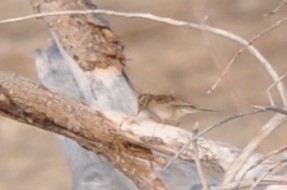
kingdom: Animalia
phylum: Chordata
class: Aves
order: Passeriformes
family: Passerellidae
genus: Spizella
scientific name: Spizella pallida
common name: Clay-colored sparrow
